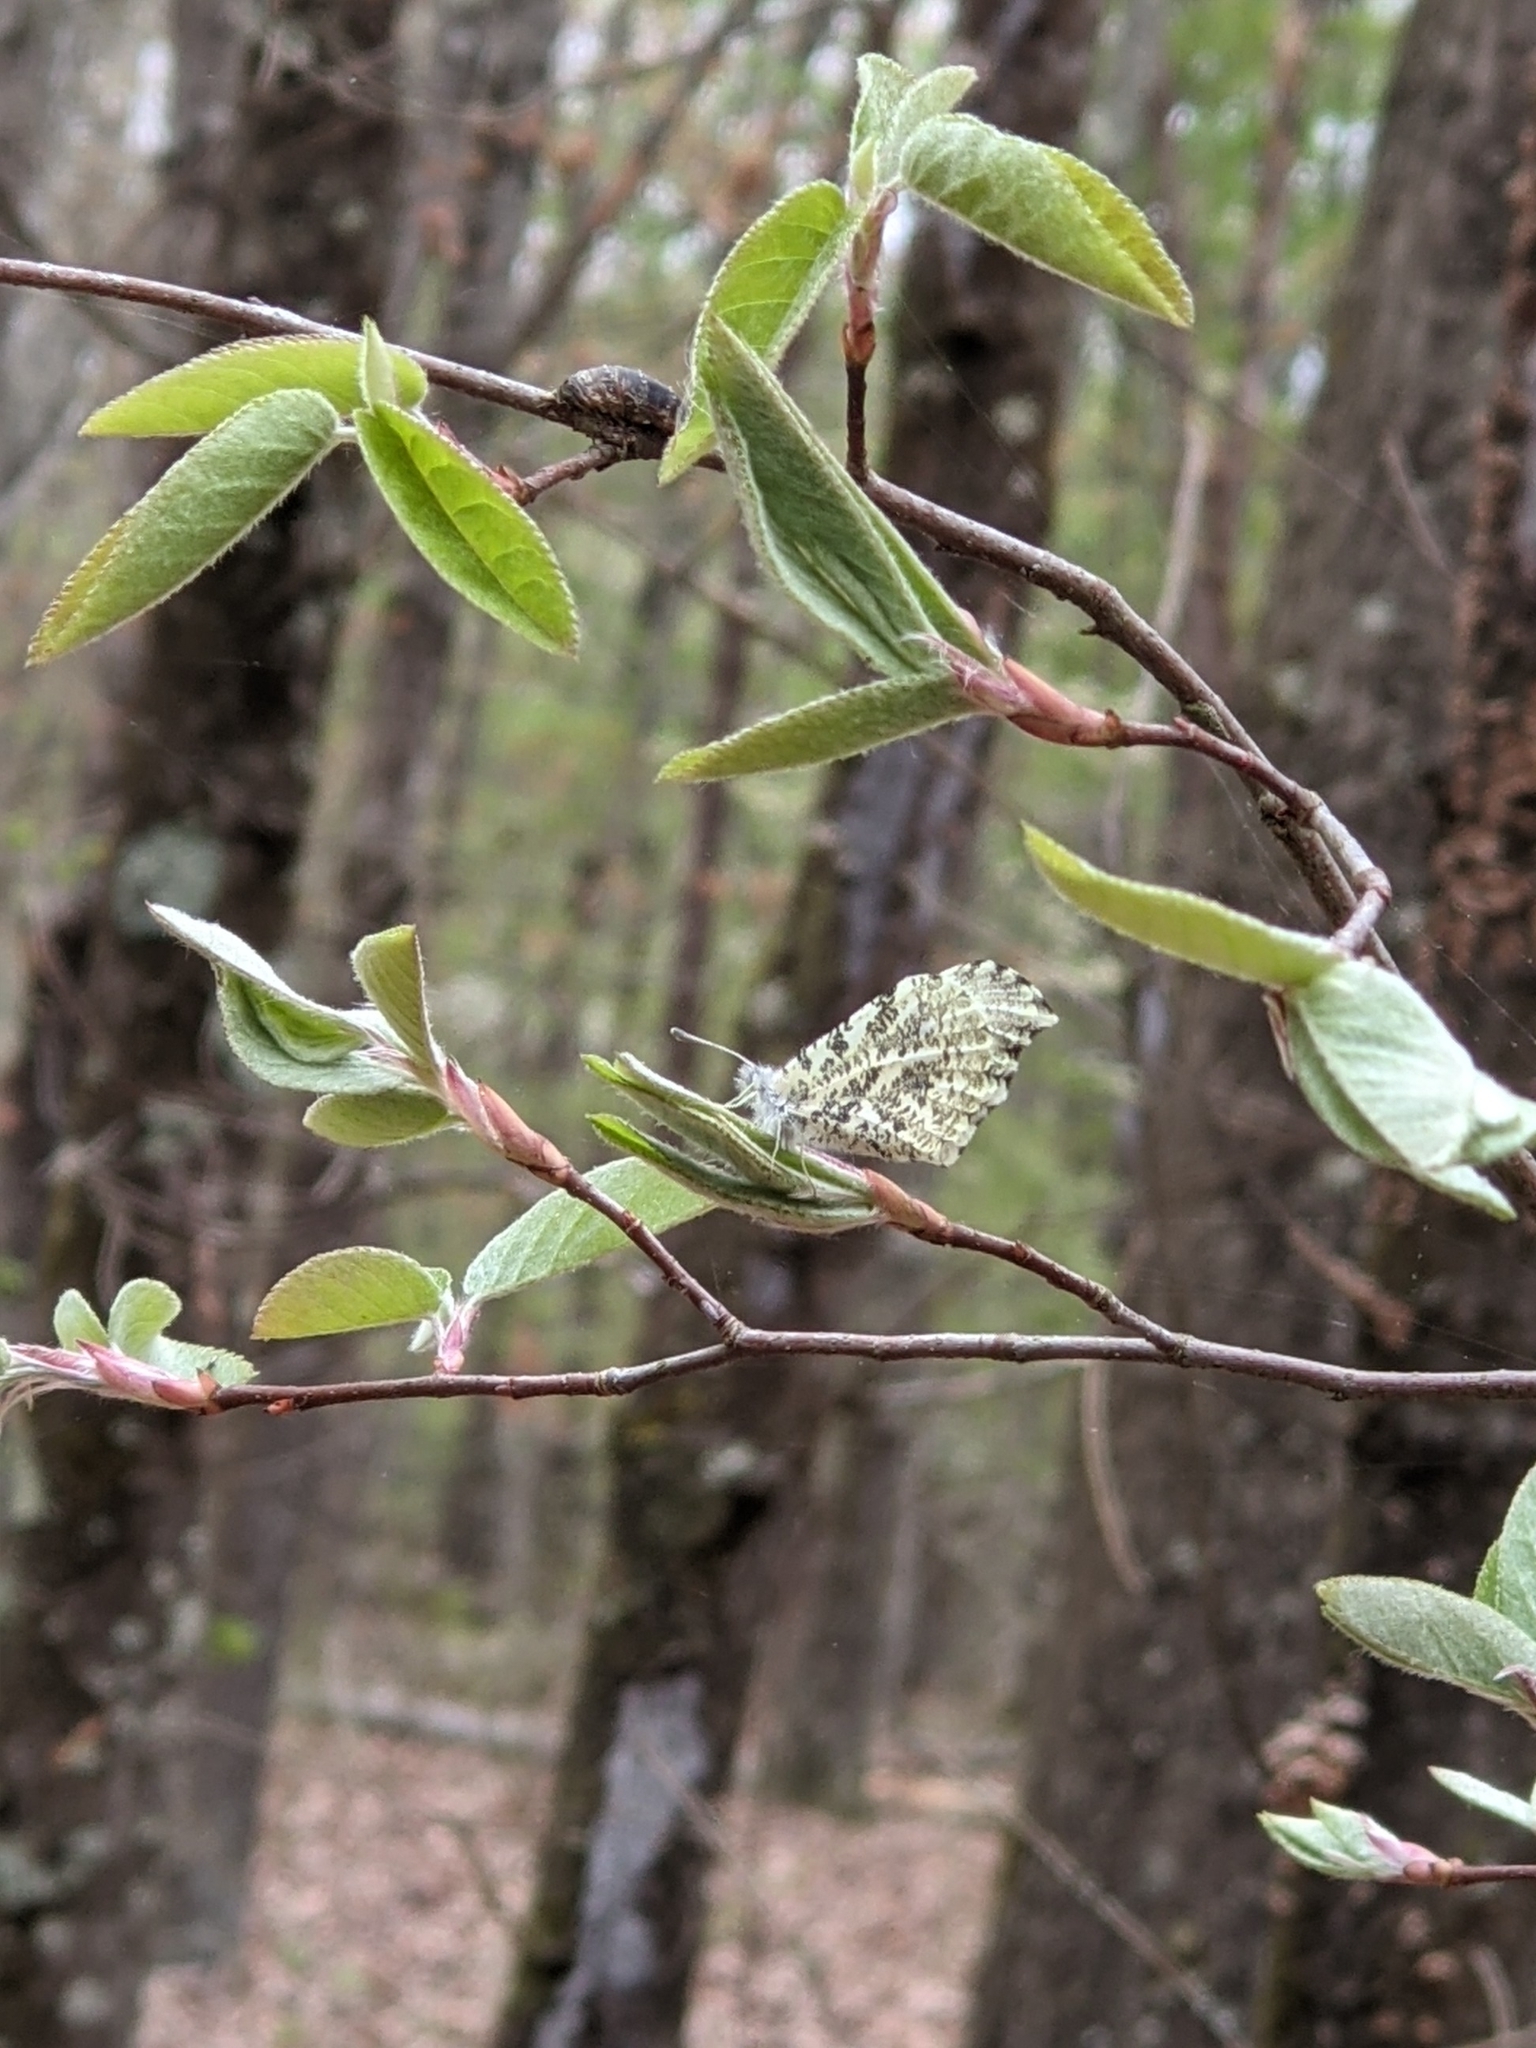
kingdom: Animalia
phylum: Arthropoda
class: Insecta
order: Lepidoptera
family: Pieridae
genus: Anthocharis
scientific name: Anthocharis midea
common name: Falcate orangetip
